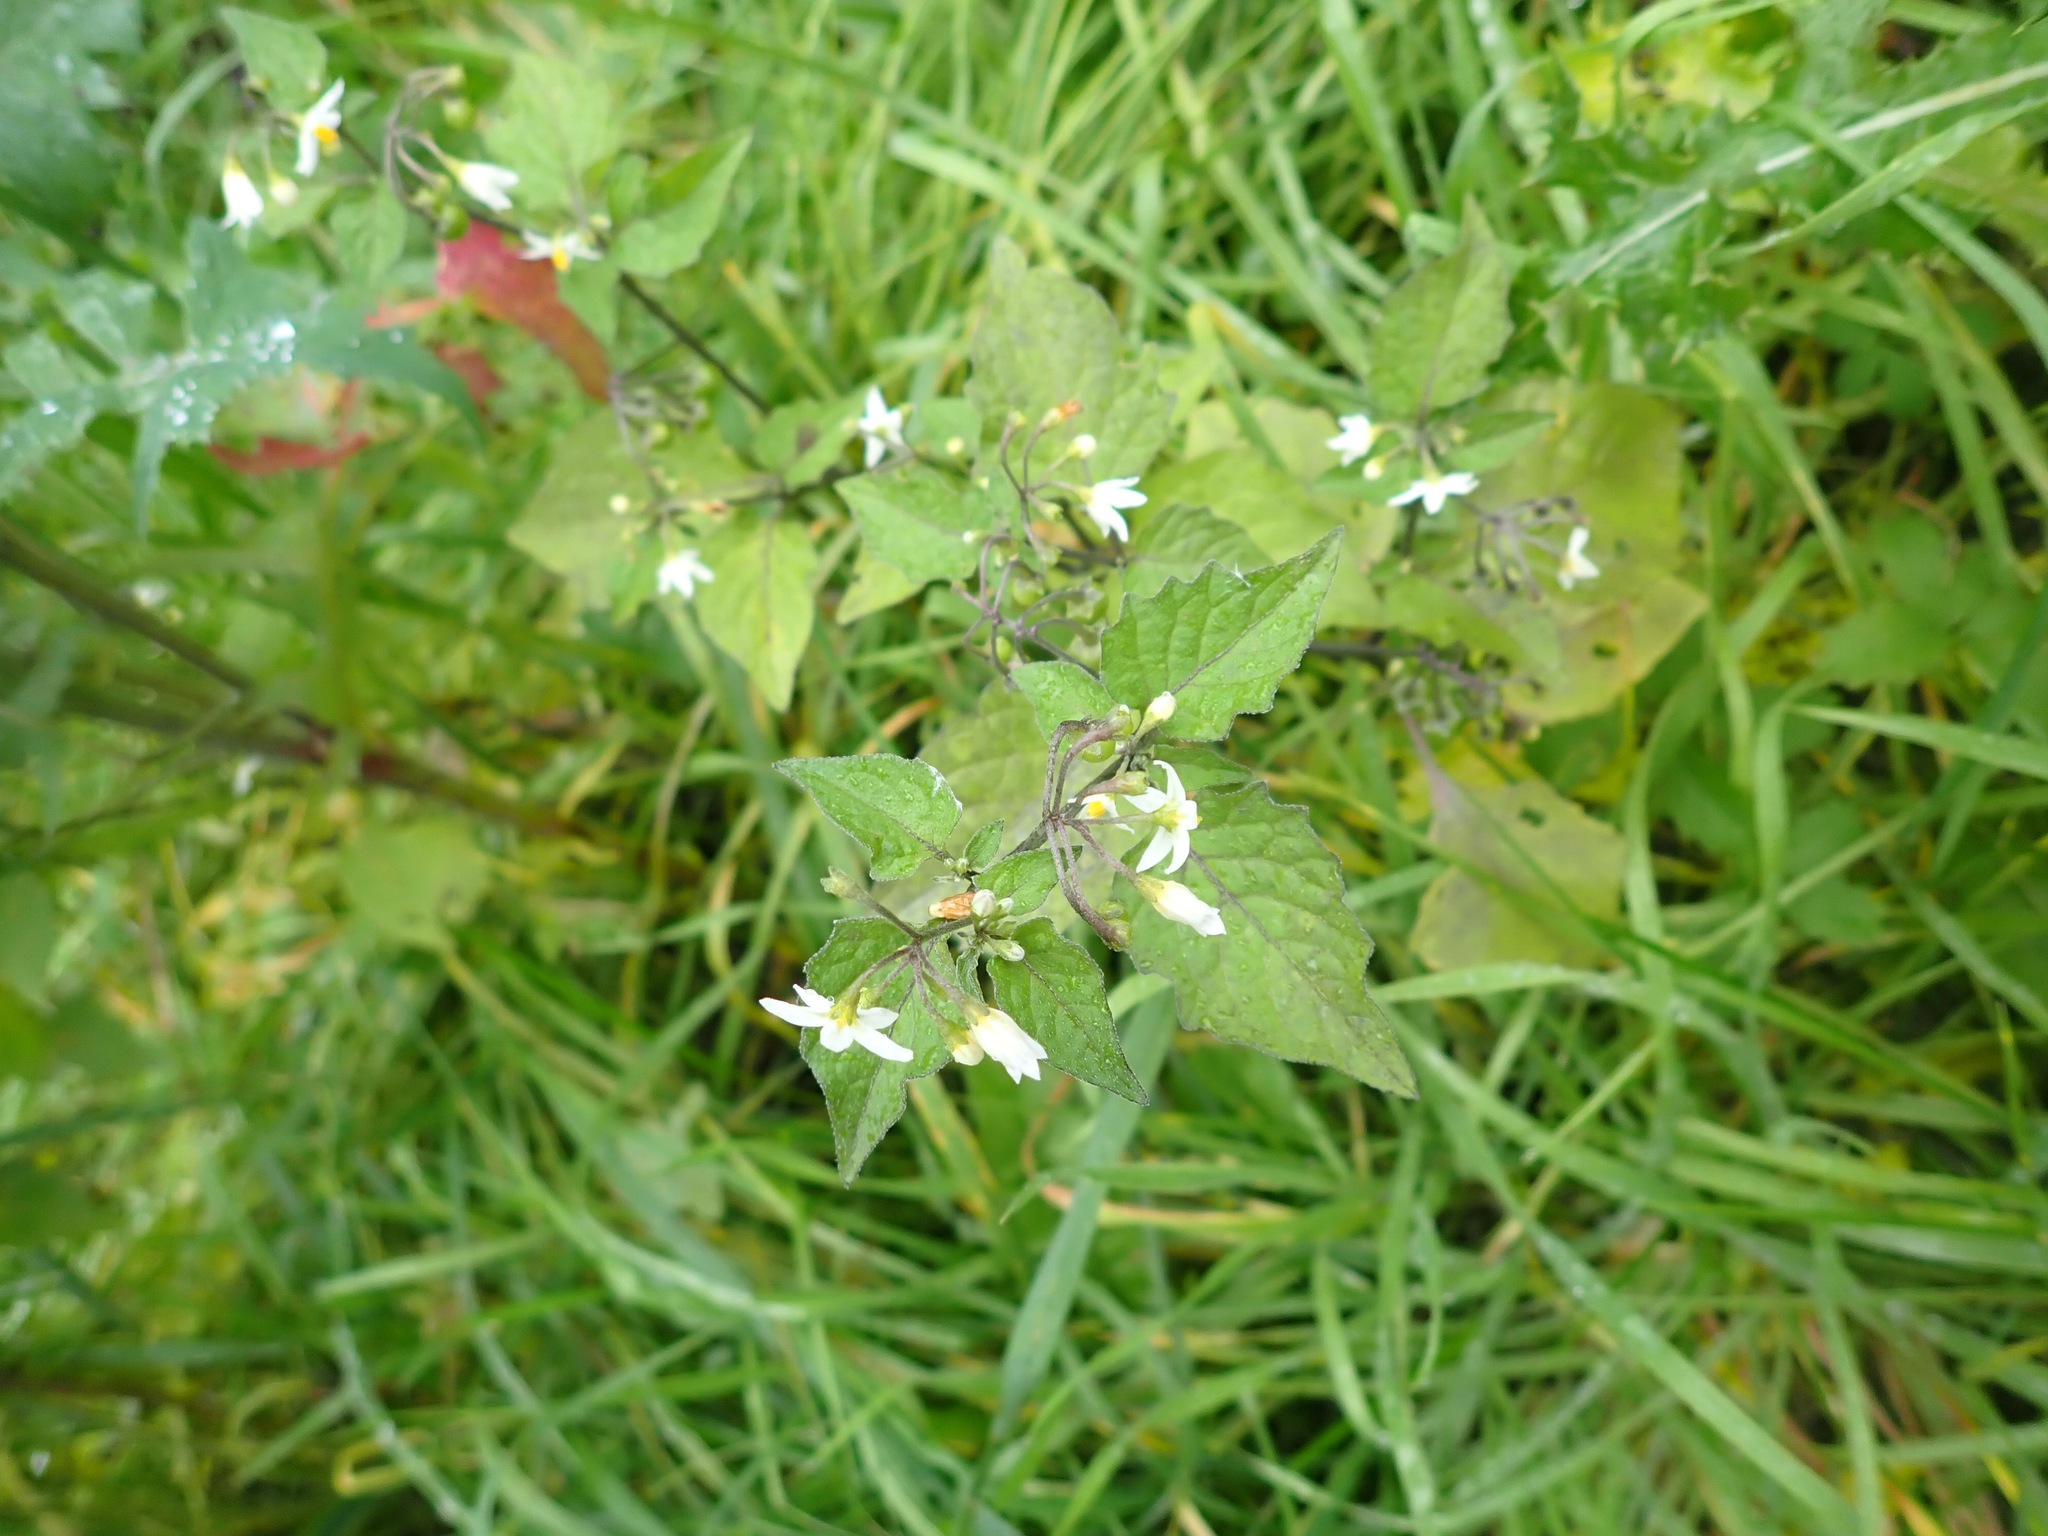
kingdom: Plantae
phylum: Tracheophyta
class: Magnoliopsida
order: Solanales
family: Solanaceae
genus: Solanum
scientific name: Solanum nigrum
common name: Black nightshade
